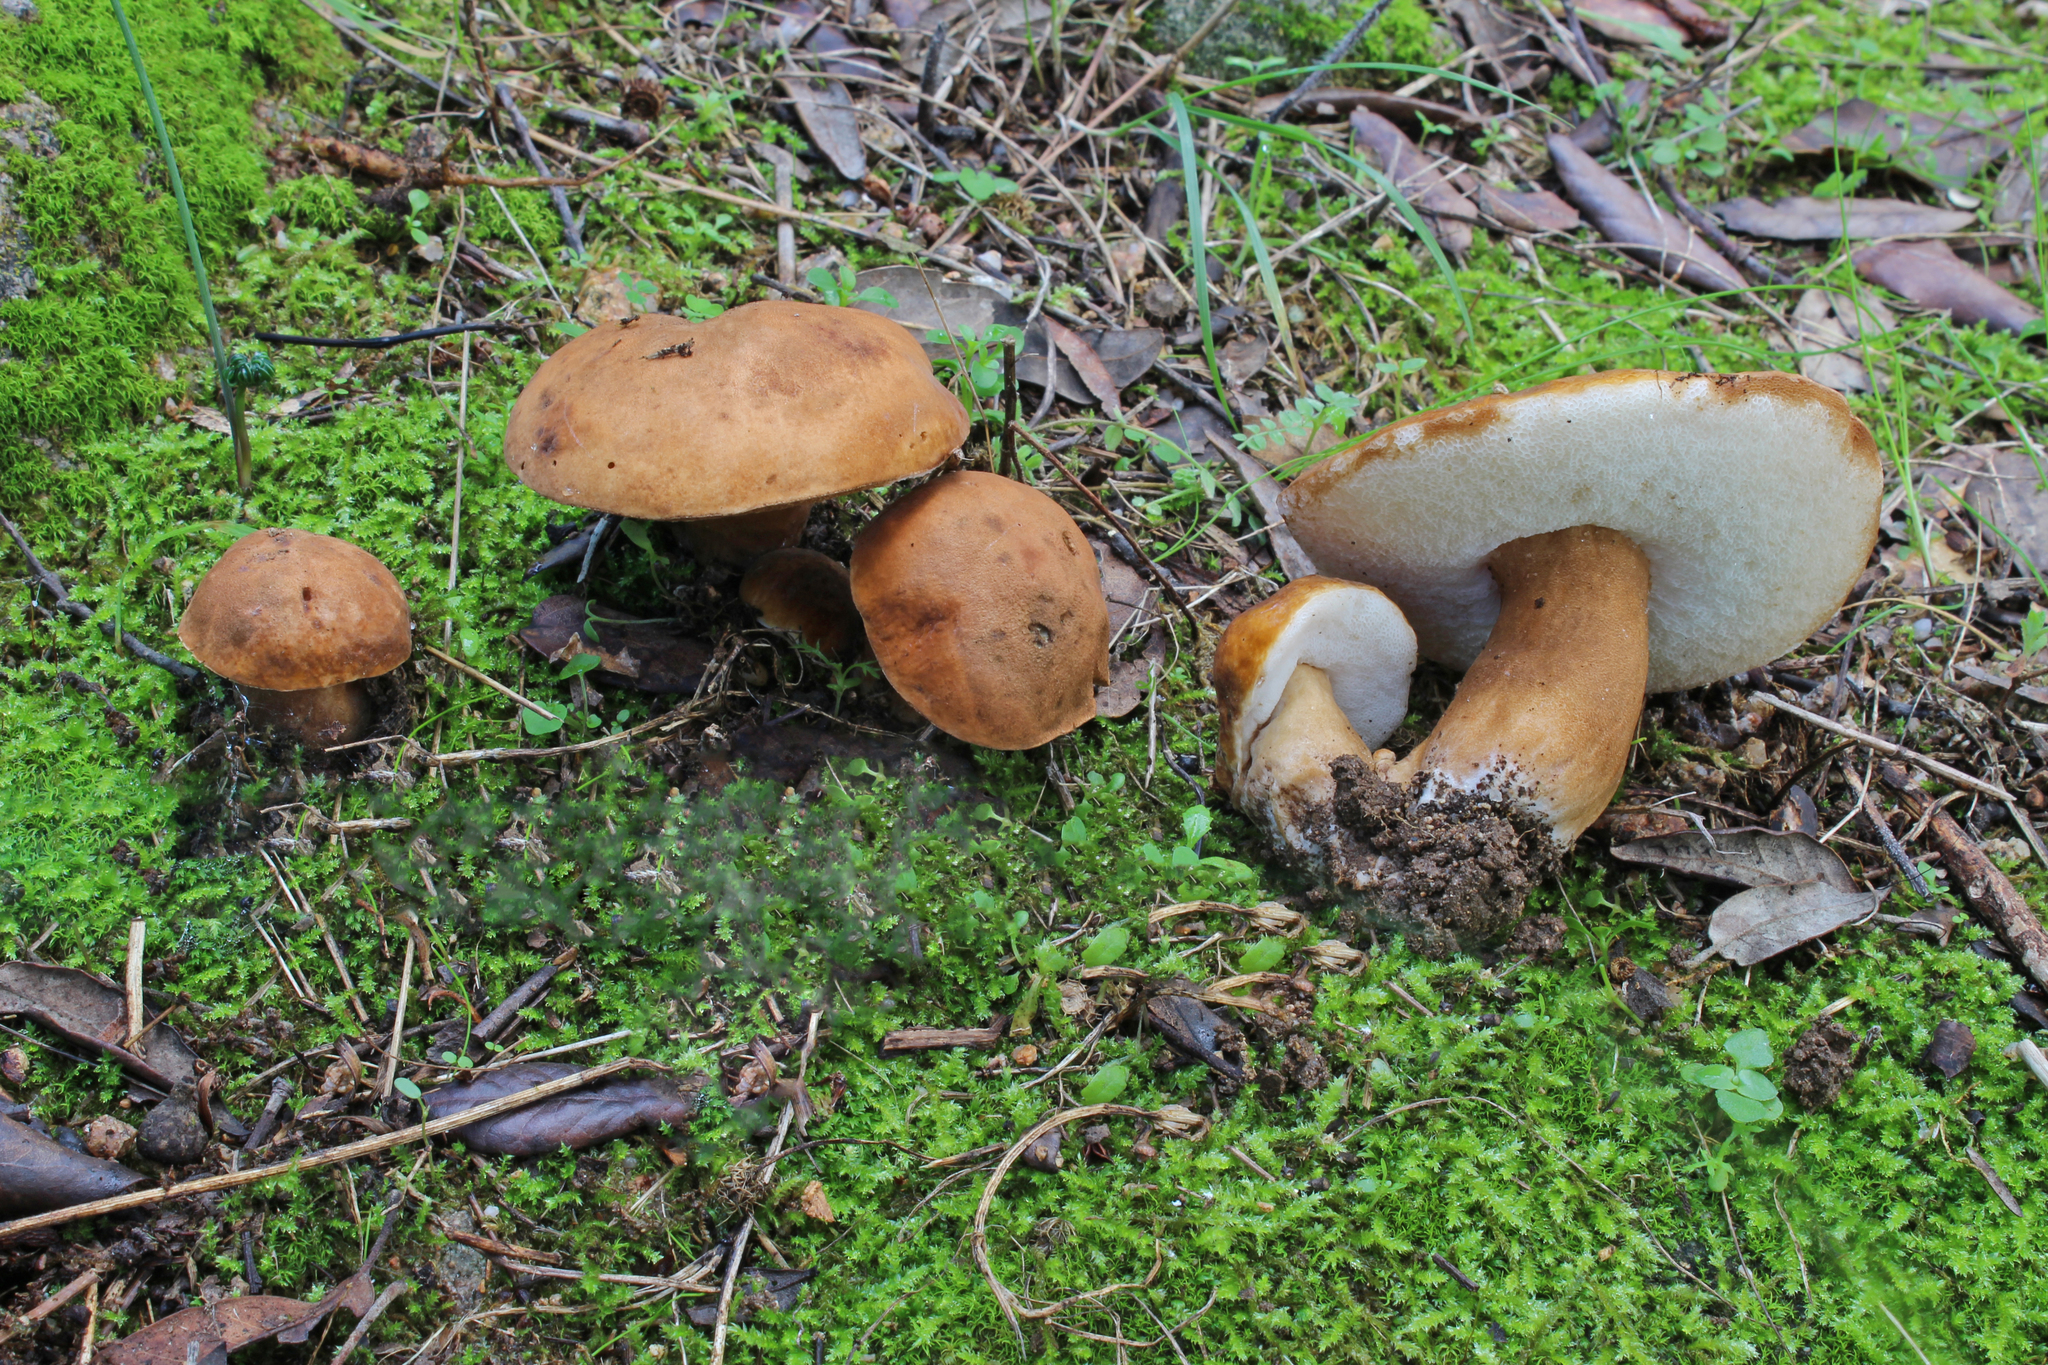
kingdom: Fungi
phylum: Basidiomycota
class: Agaricomycetes
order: Boletales
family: Gyroporaceae
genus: Gyroporus
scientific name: Gyroporus castaneus
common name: Chestnut bolete
